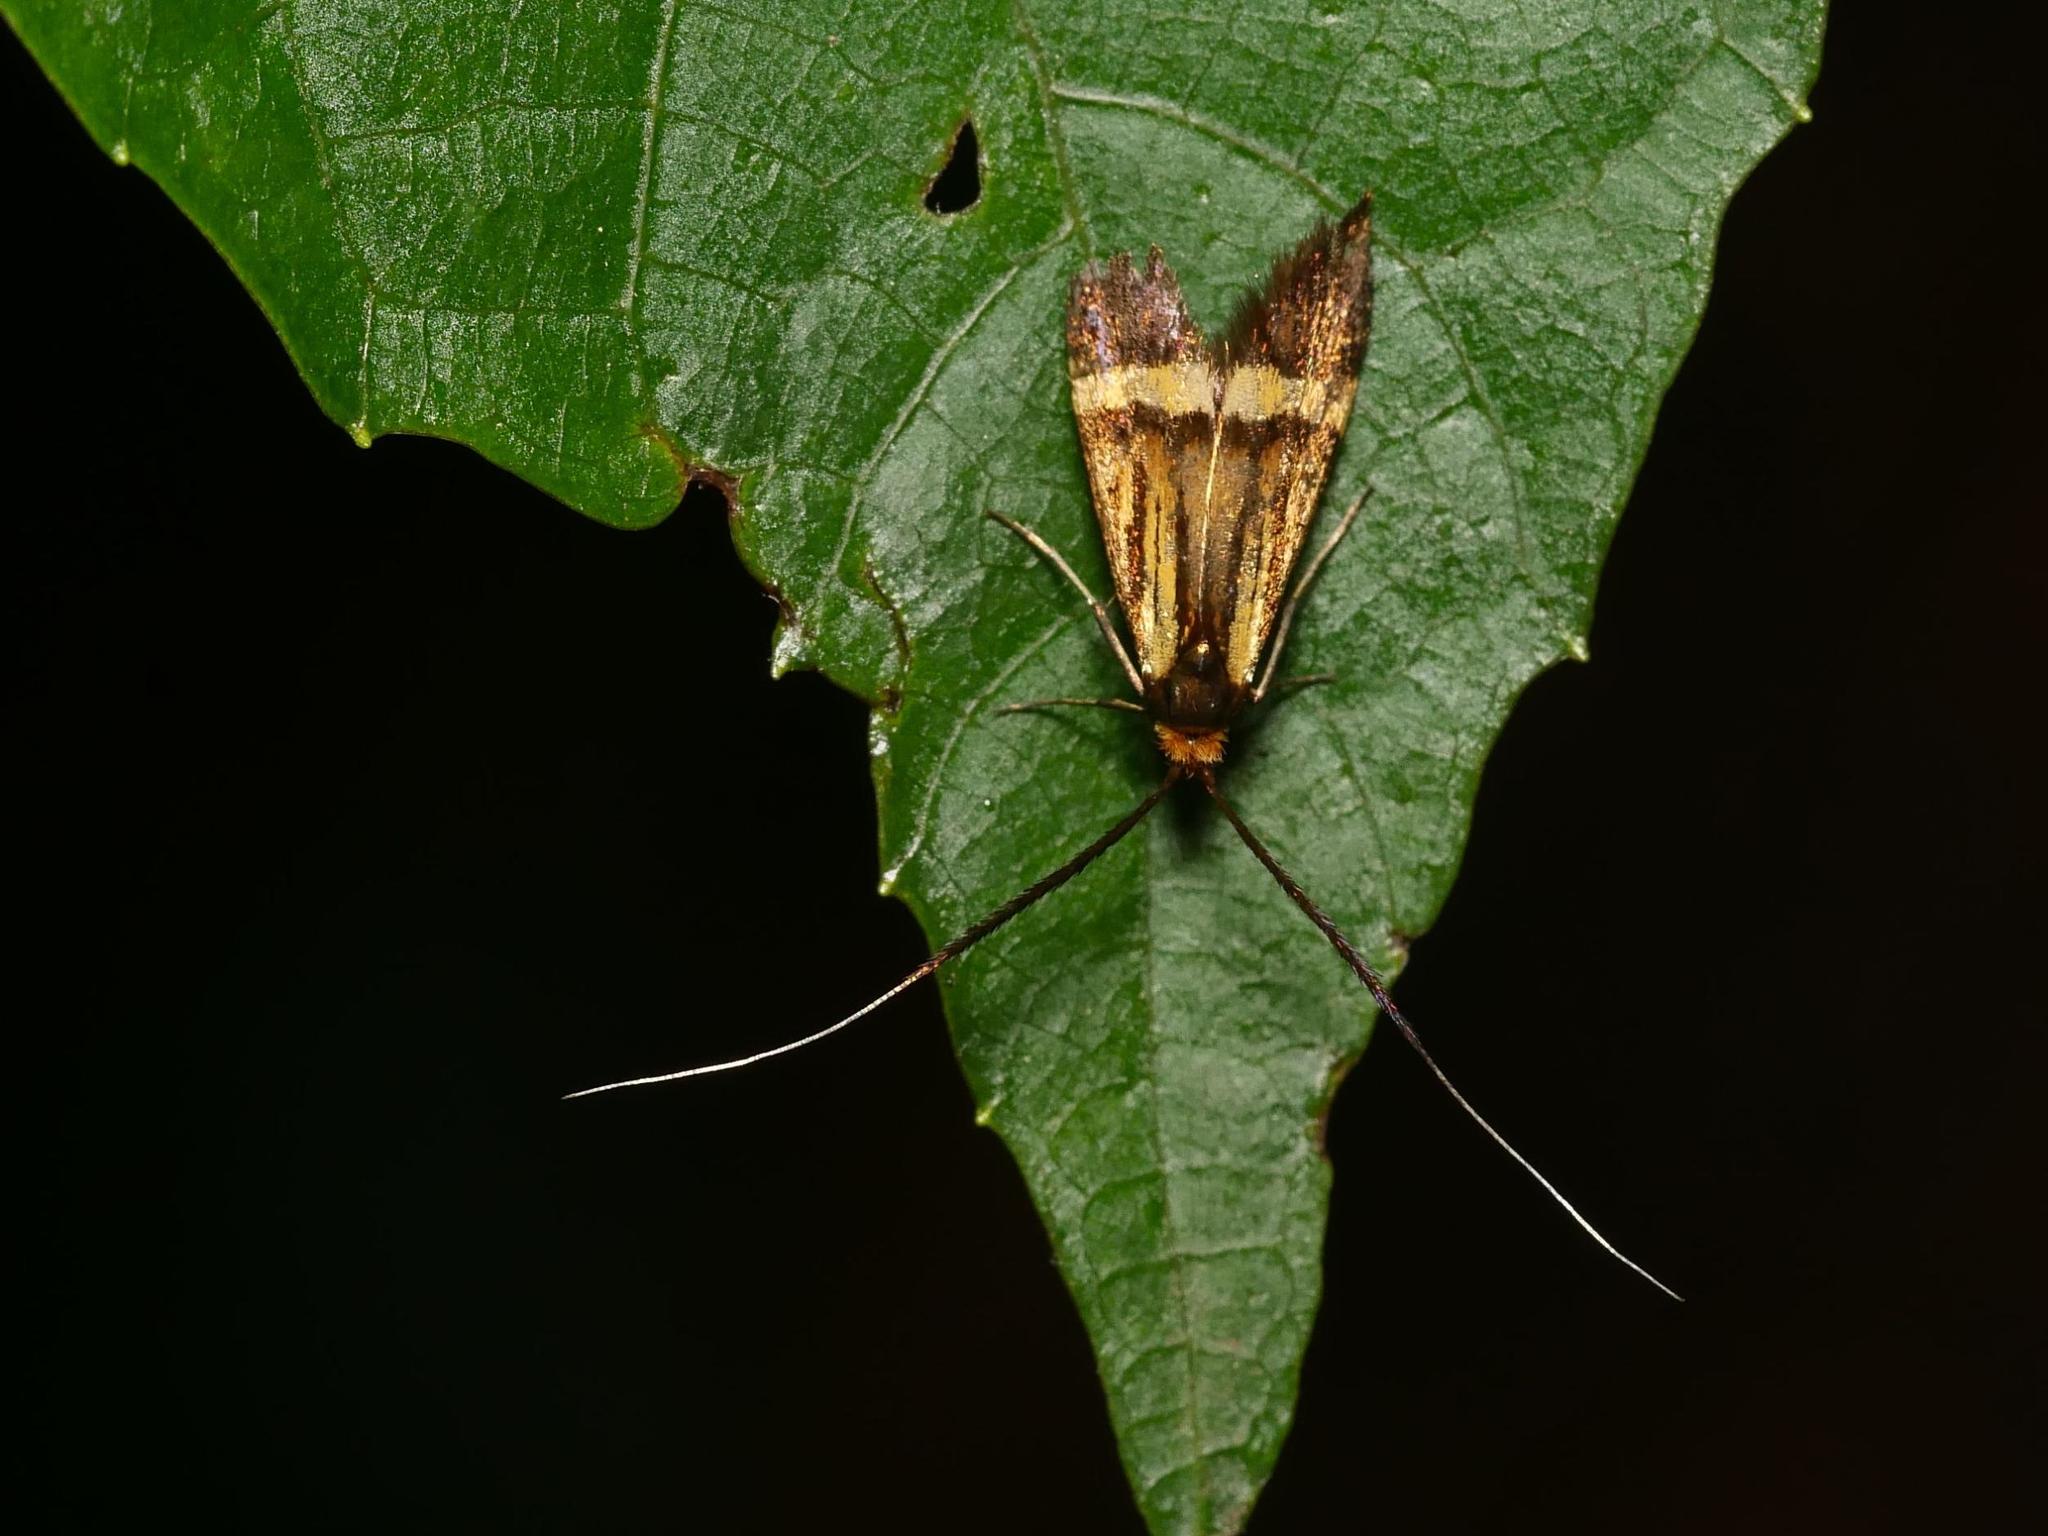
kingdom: Animalia
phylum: Arthropoda
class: Insecta
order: Lepidoptera
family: Adelidae
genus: Nemophora
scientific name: Nemophora degeerella
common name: Yellow-barred long-horn
